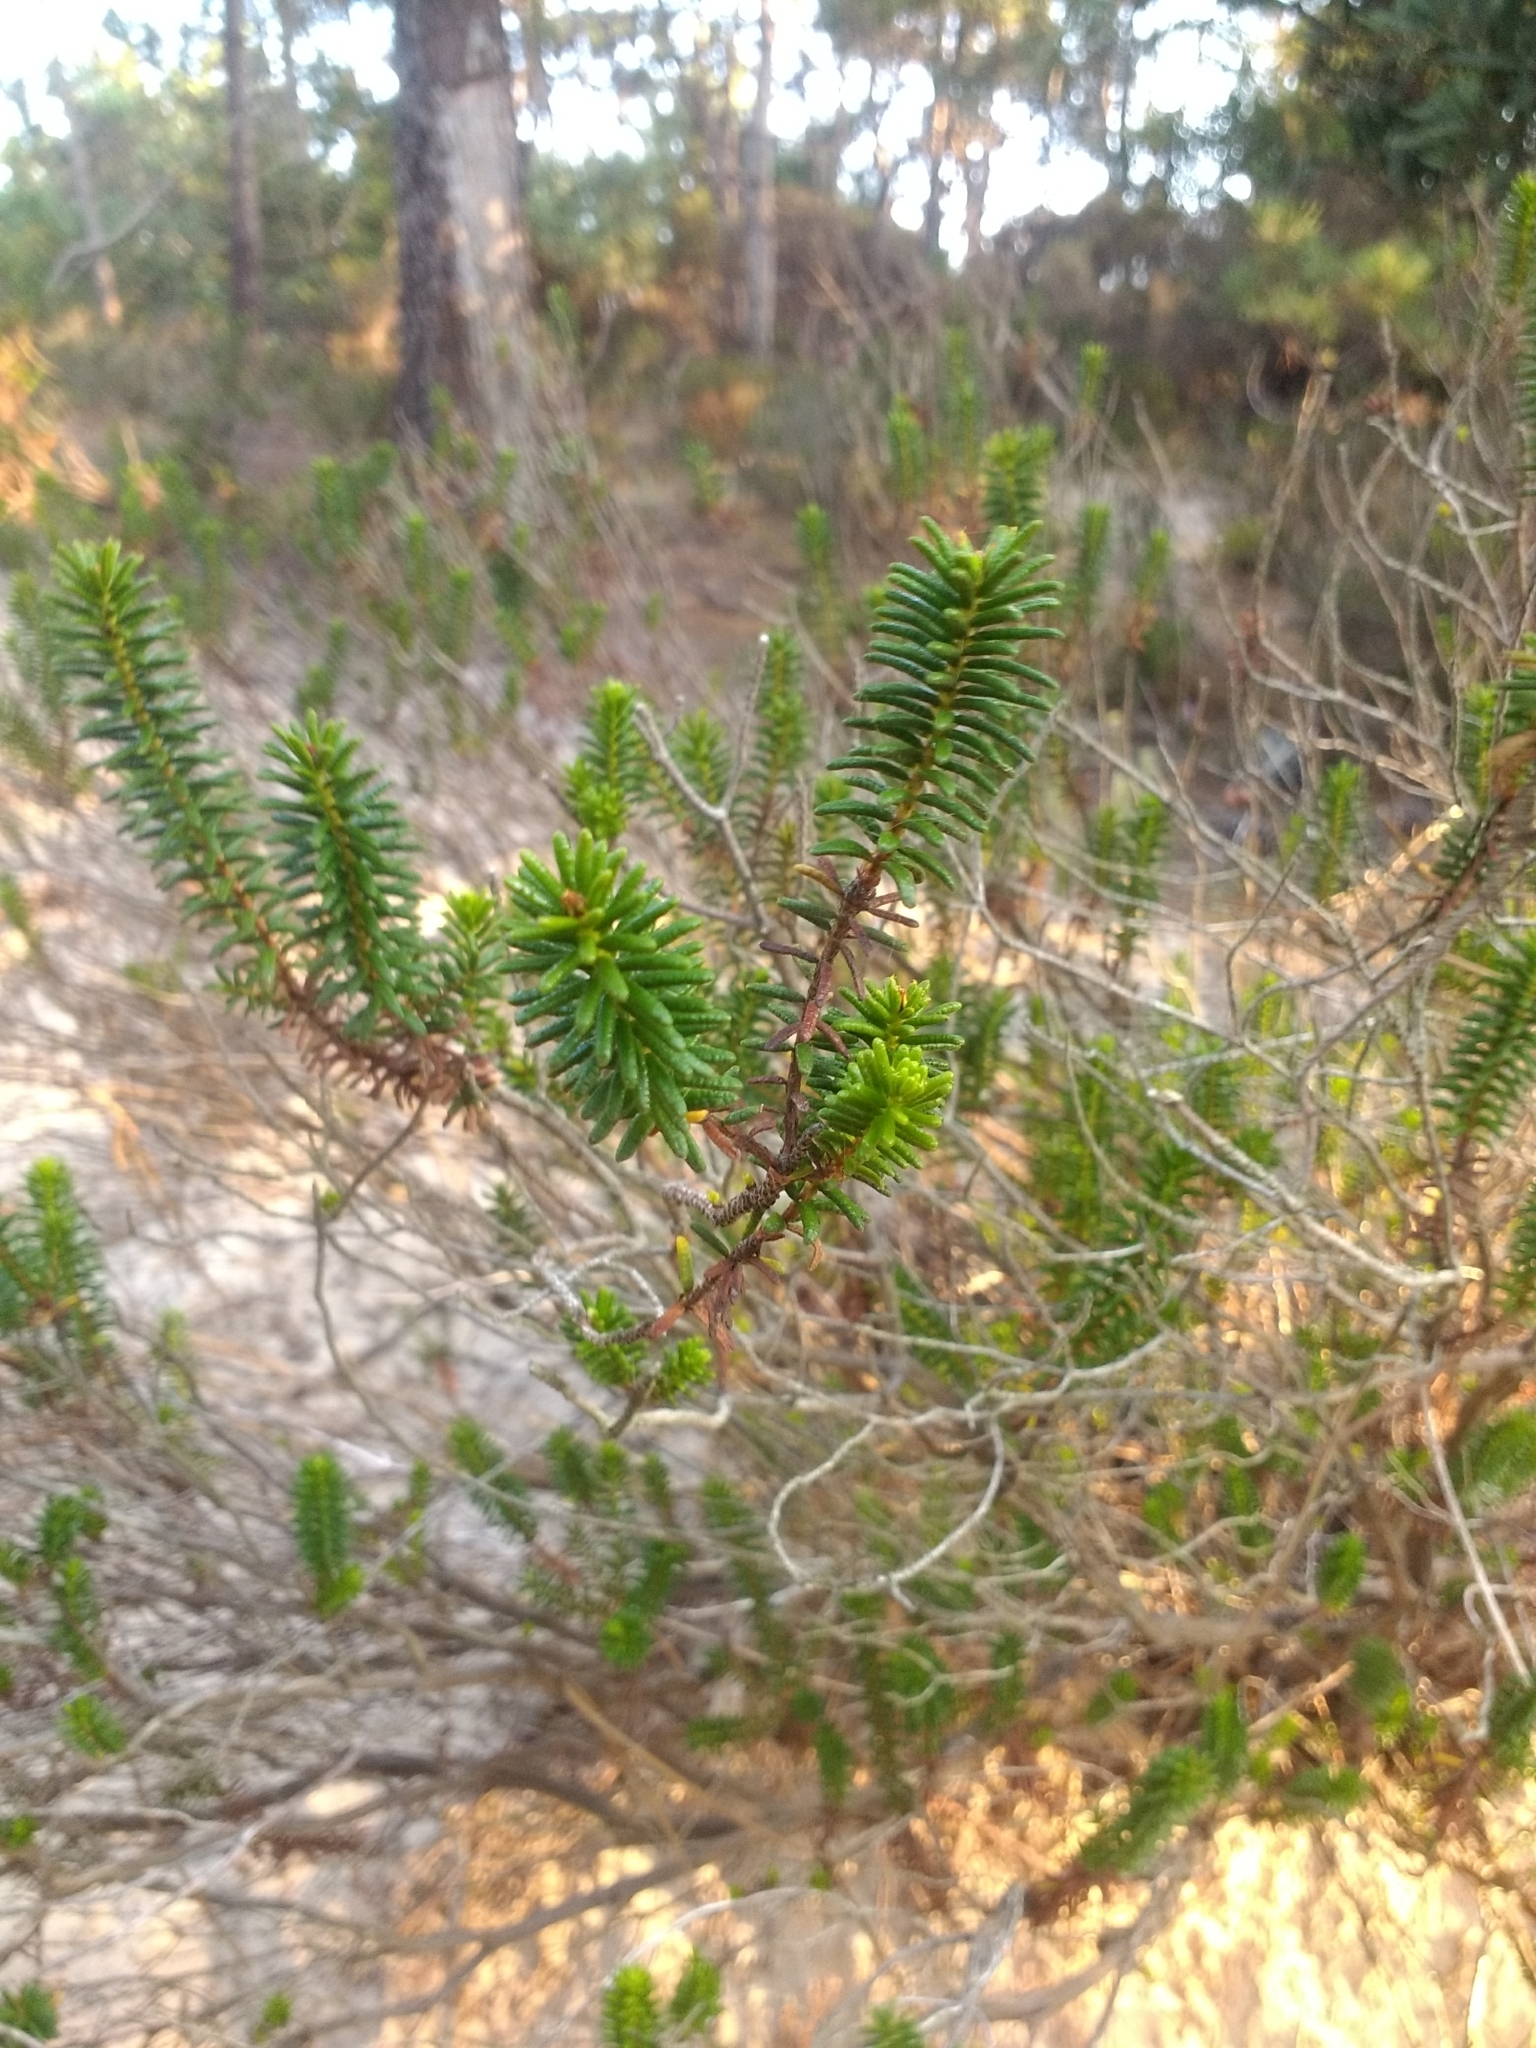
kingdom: Plantae
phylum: Tracheophyta
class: Magnoliopsida
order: Ericales
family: Ericaceae
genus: Corema
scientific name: Corema album
